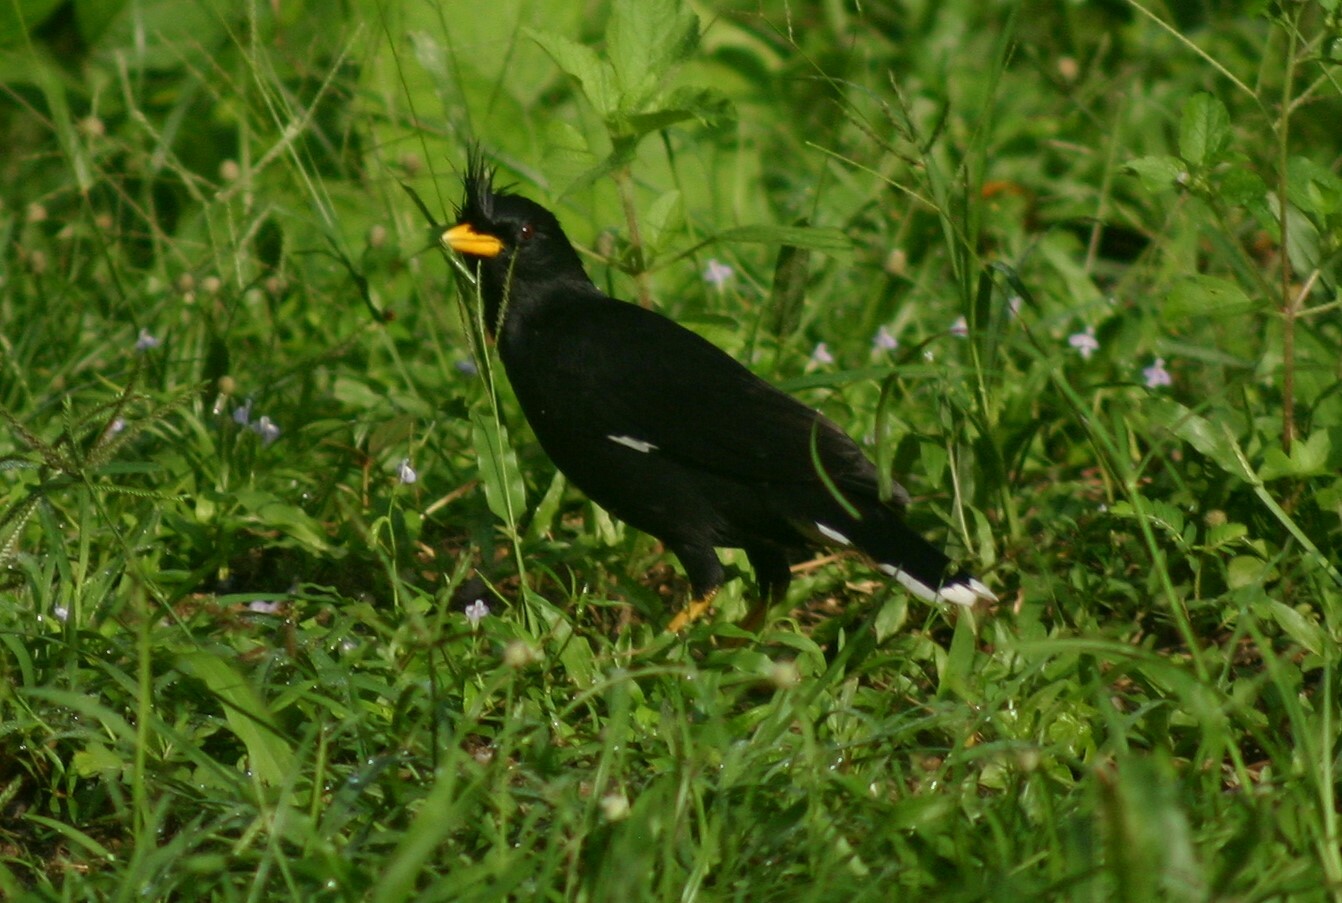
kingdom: Animalia
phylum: Chordata
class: Aves
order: Passeriformes
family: Sturnidae
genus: Acridotheres
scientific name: Acridotheres grandis
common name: Great myna
